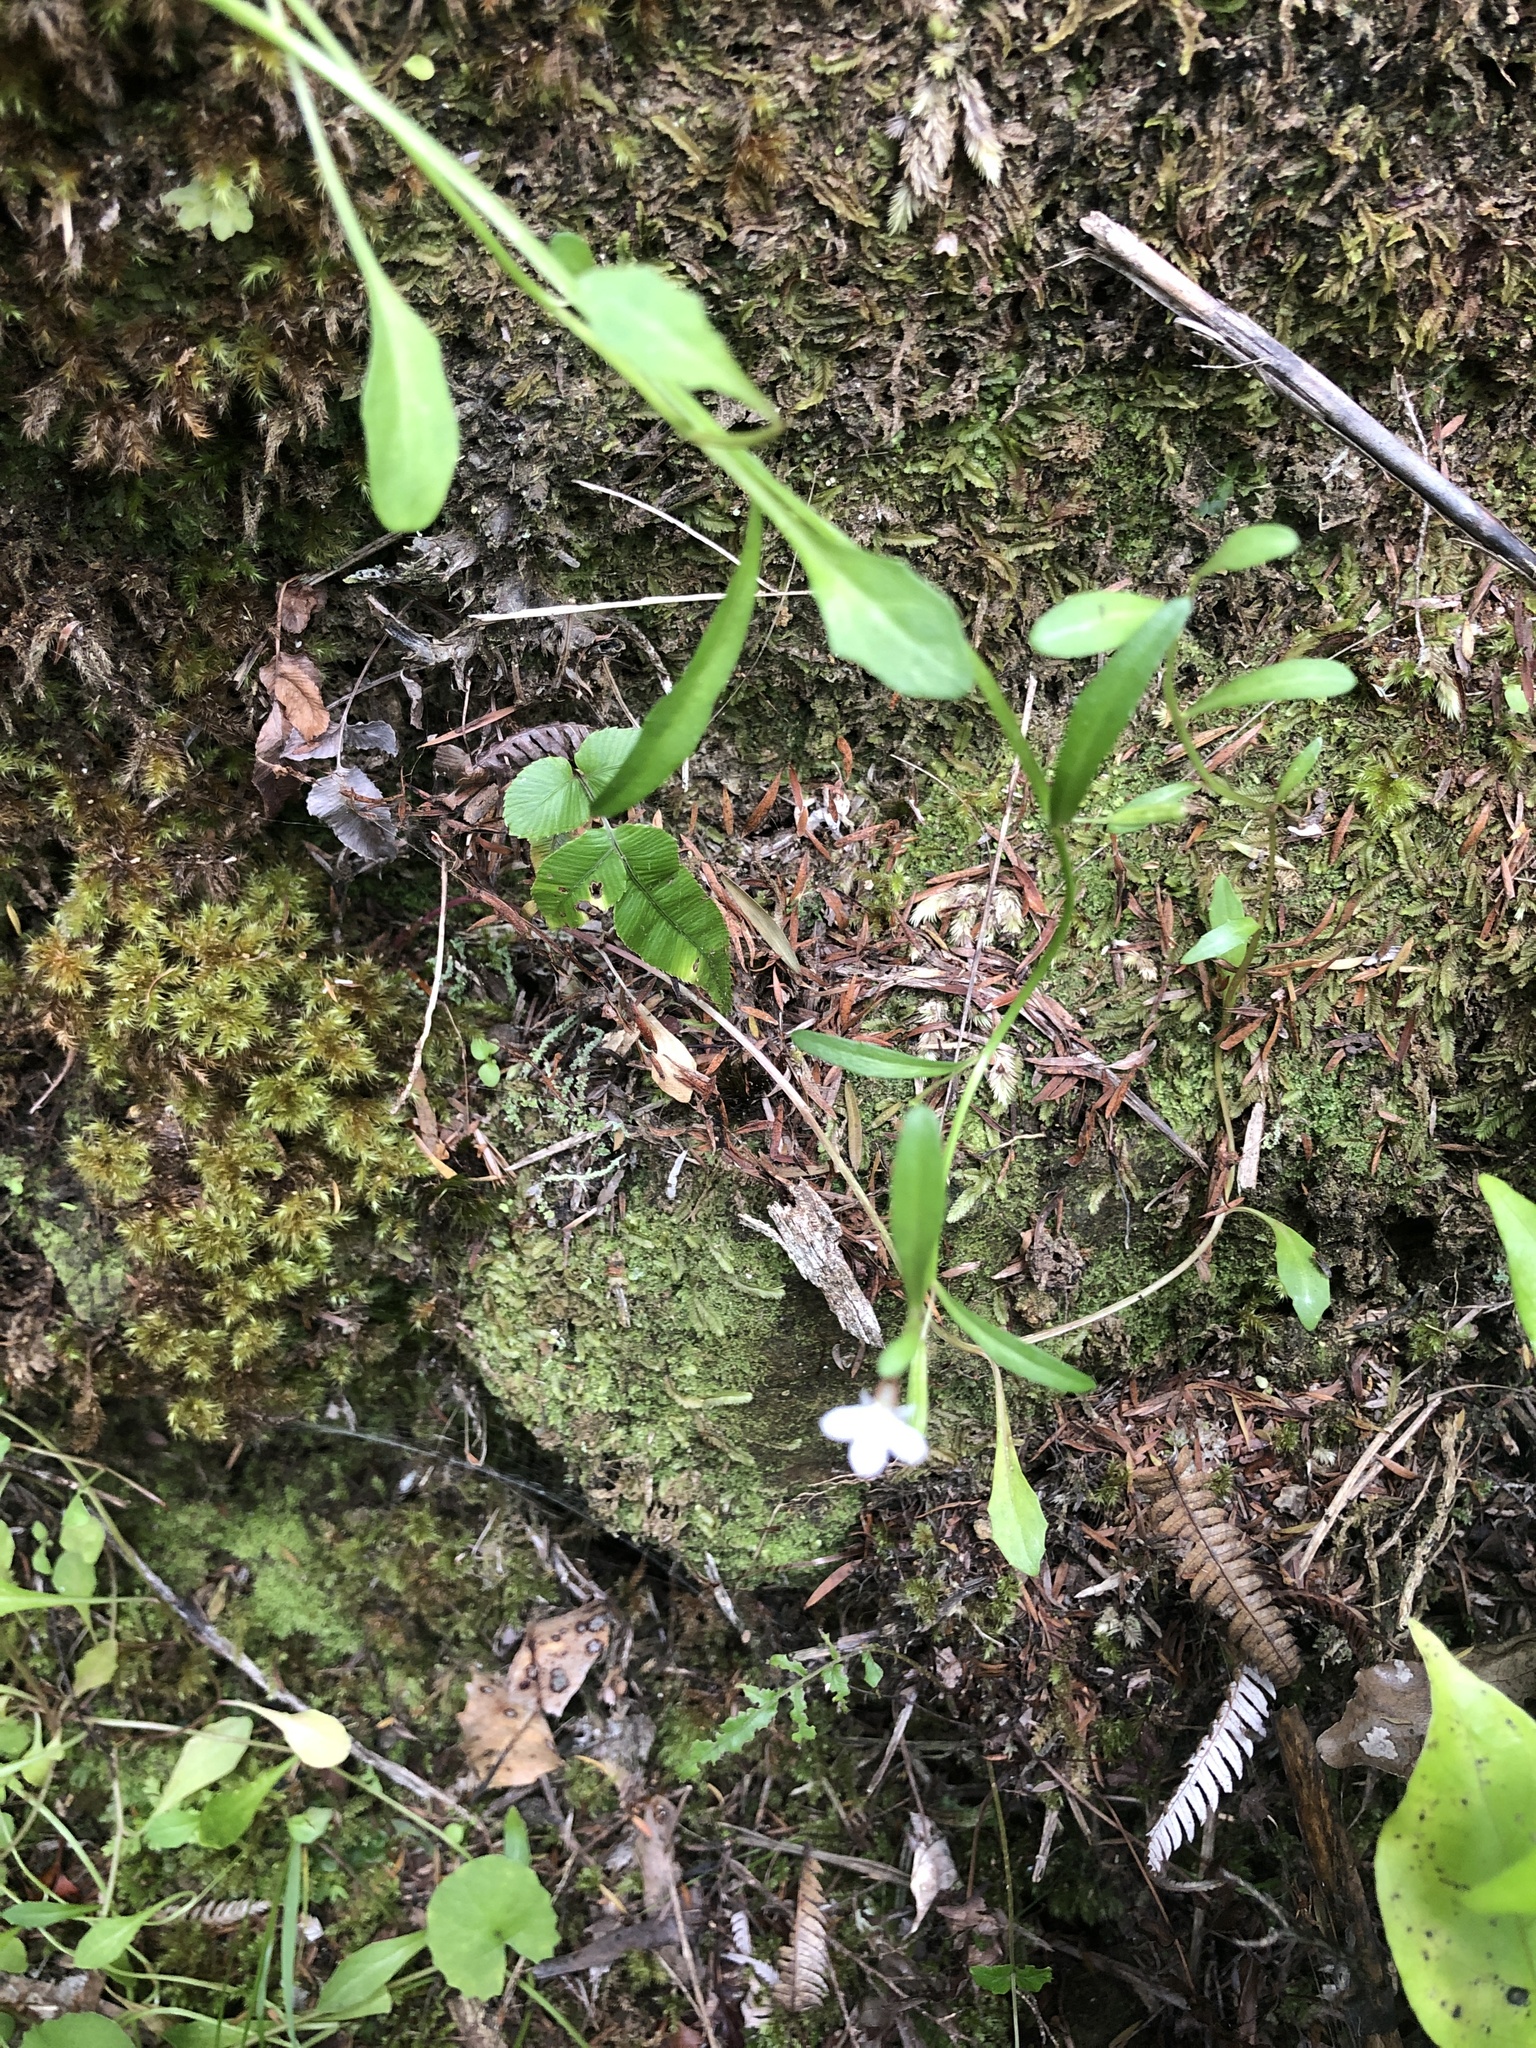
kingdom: Plantae
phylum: Tracheophyta
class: Magnoliopsida
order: Asterales
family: Campanulaceae
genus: Lobelia
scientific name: Lobelia anceps
